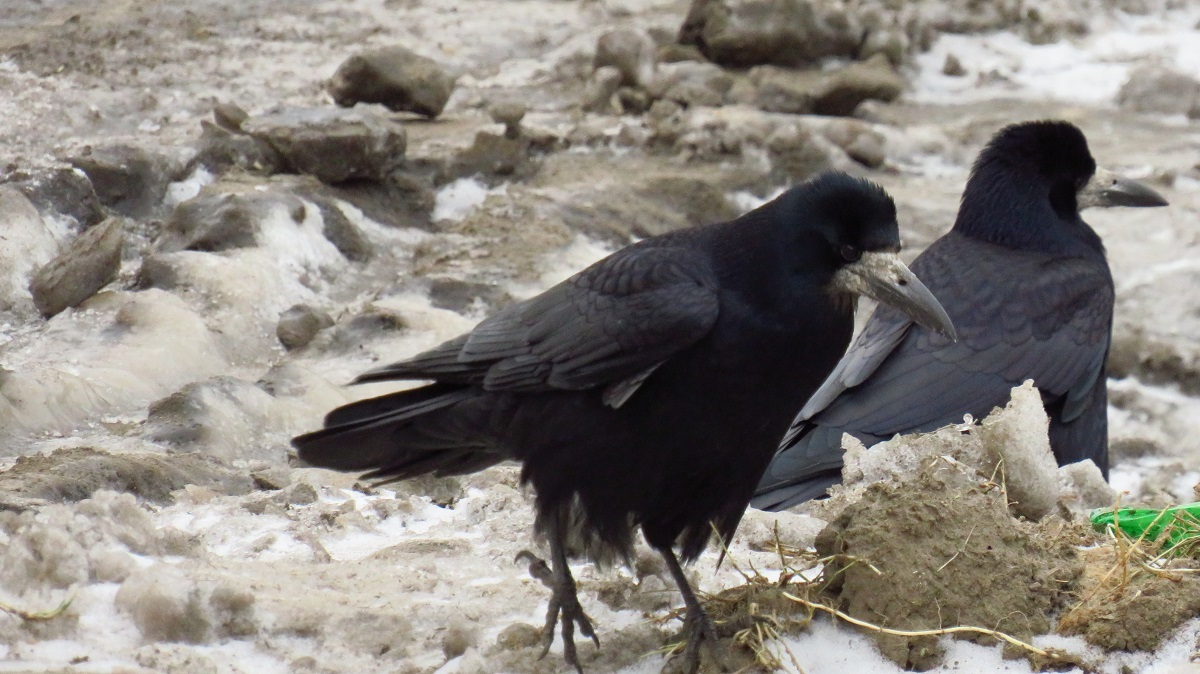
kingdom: Animalia
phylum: Chordata
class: Aves
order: Passeriformes
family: Corvidae
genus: Corvus
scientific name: Corvus frugilegus
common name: Rook
